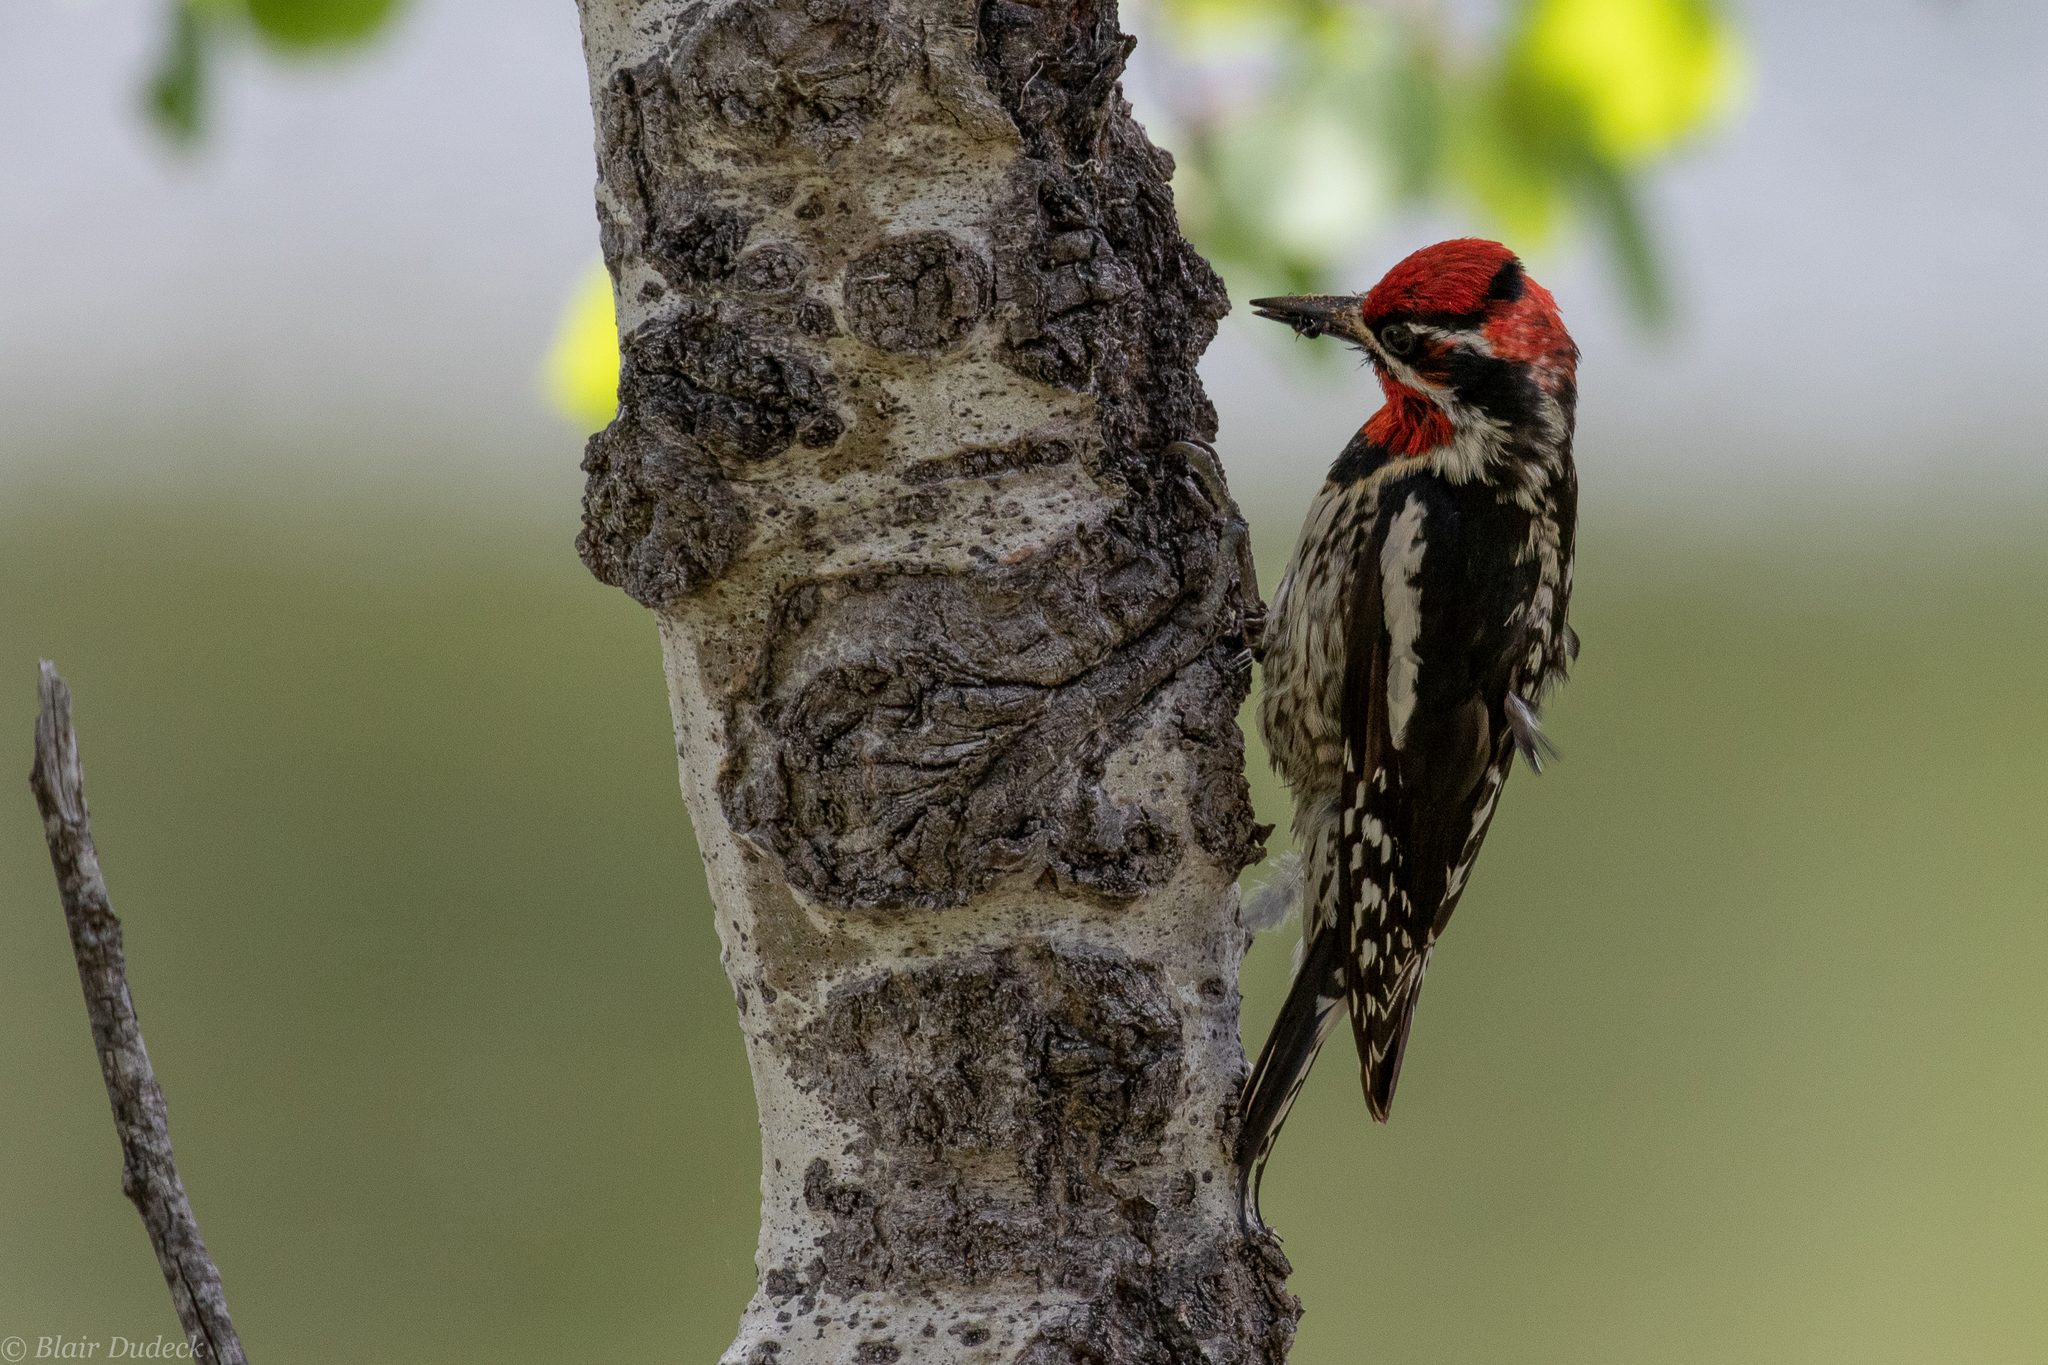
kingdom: Animalia
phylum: Chordata
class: Aves
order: Piciformes
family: Picidae
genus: Sphyrapicus
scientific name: Sphyrapicus nuchalis
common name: Red-naped sapsucker
